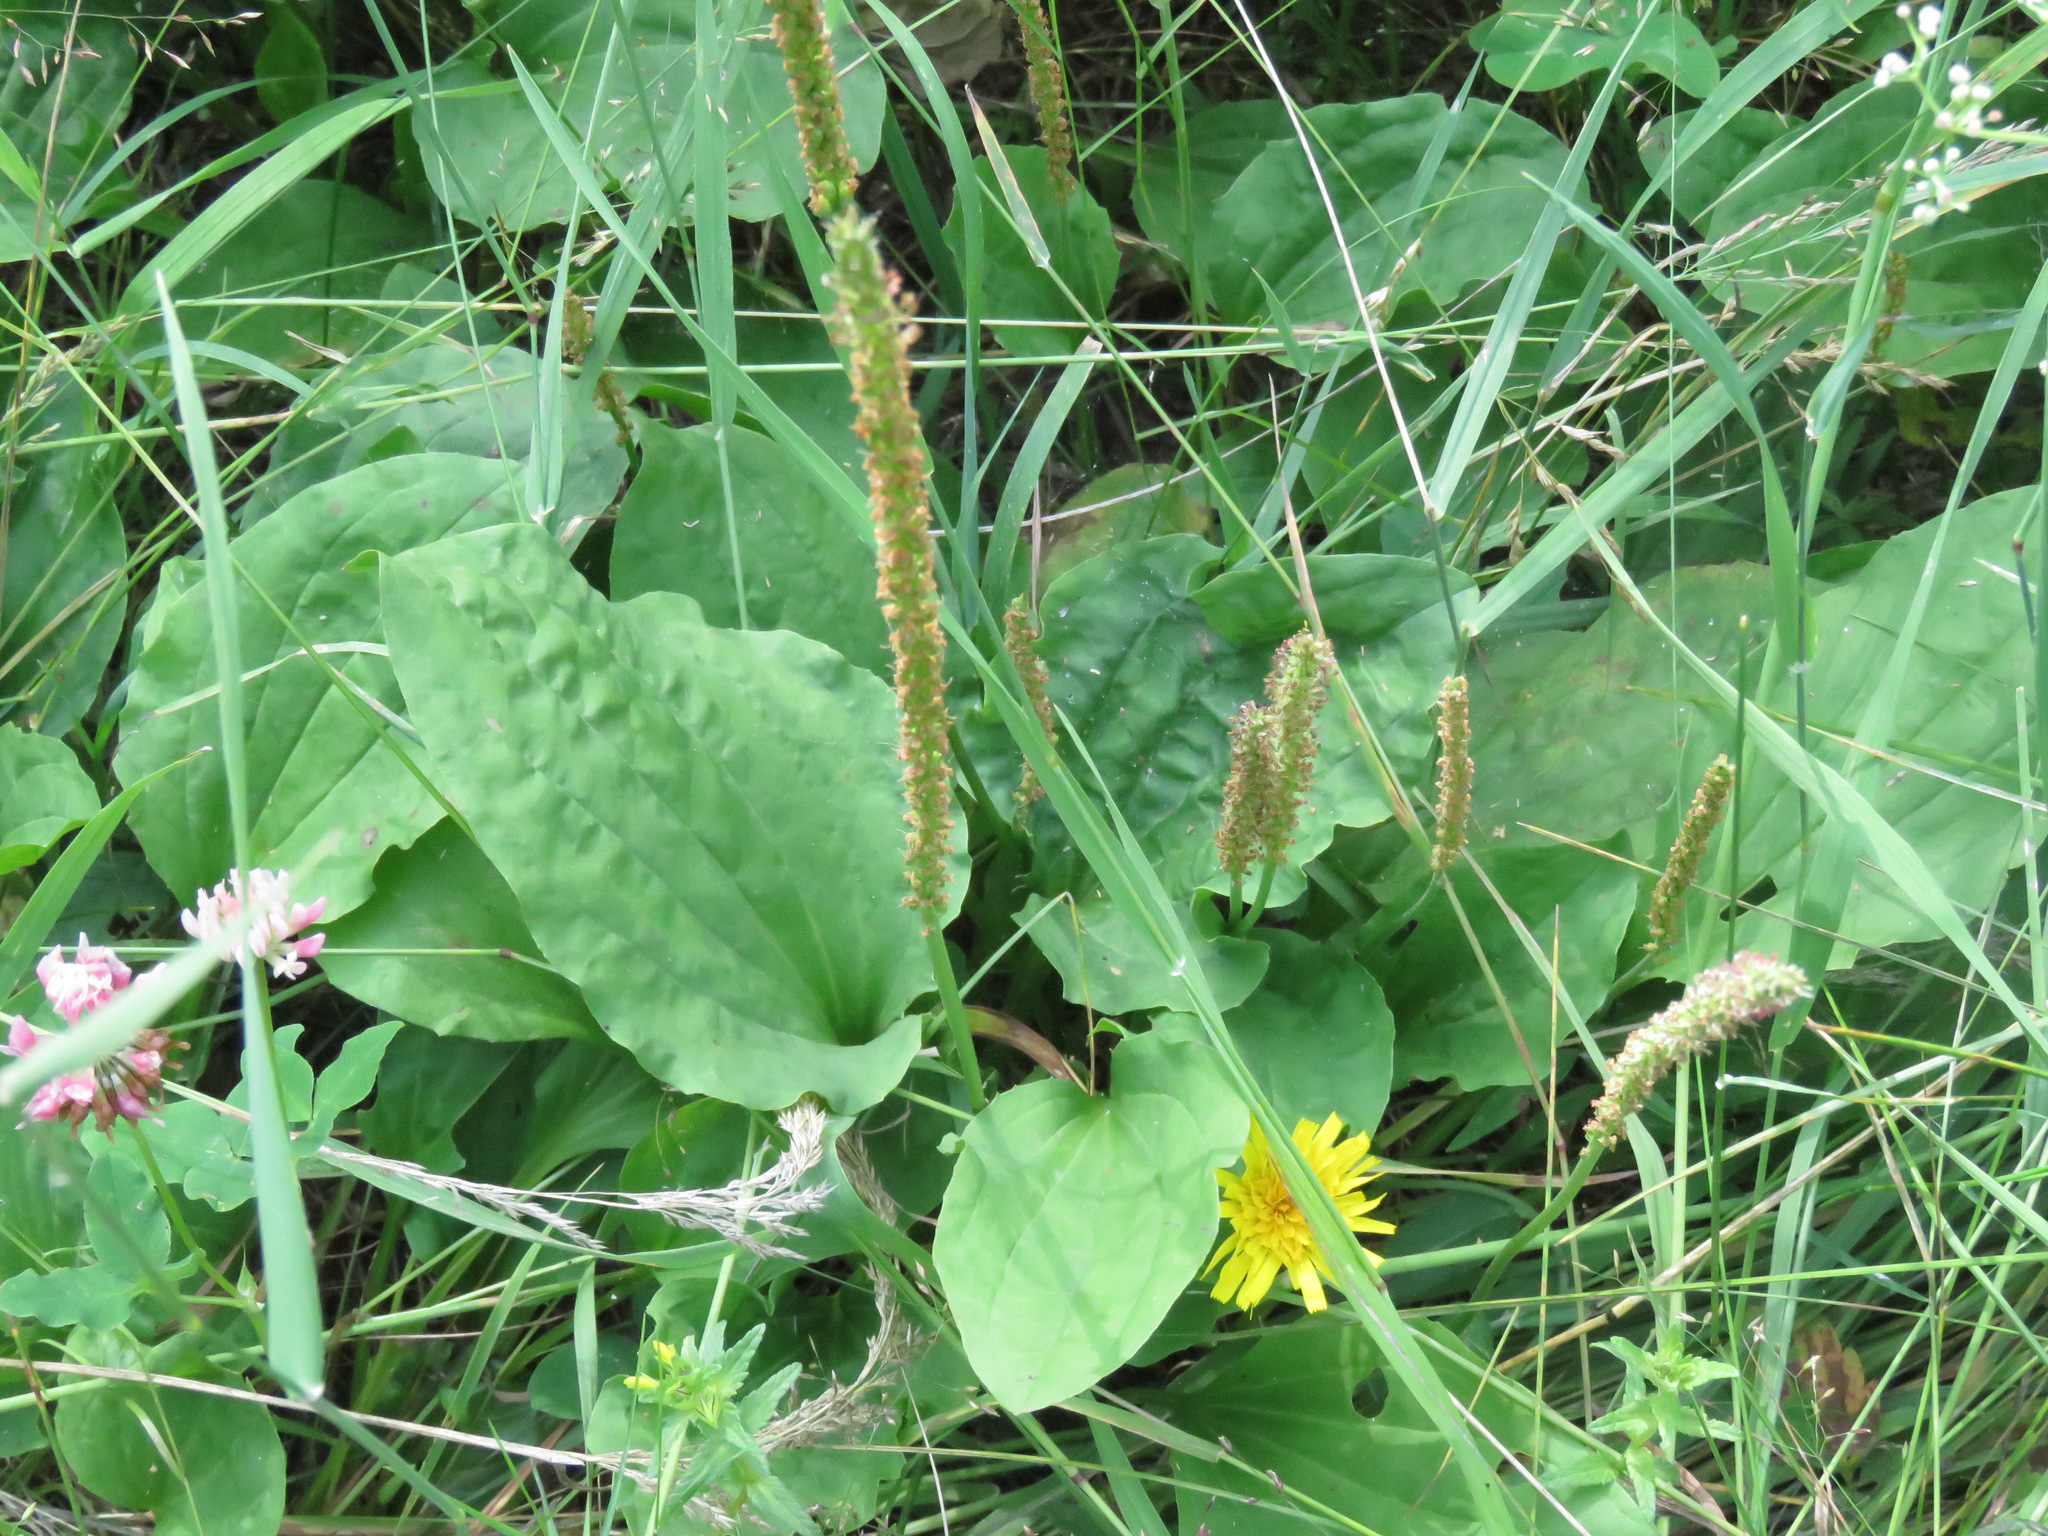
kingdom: Plantae
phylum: Tracheophyta
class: Magnoliopsida
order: Lamiales
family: Plantaginaceae
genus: Plantago
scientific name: Plantago major
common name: Common plantain
